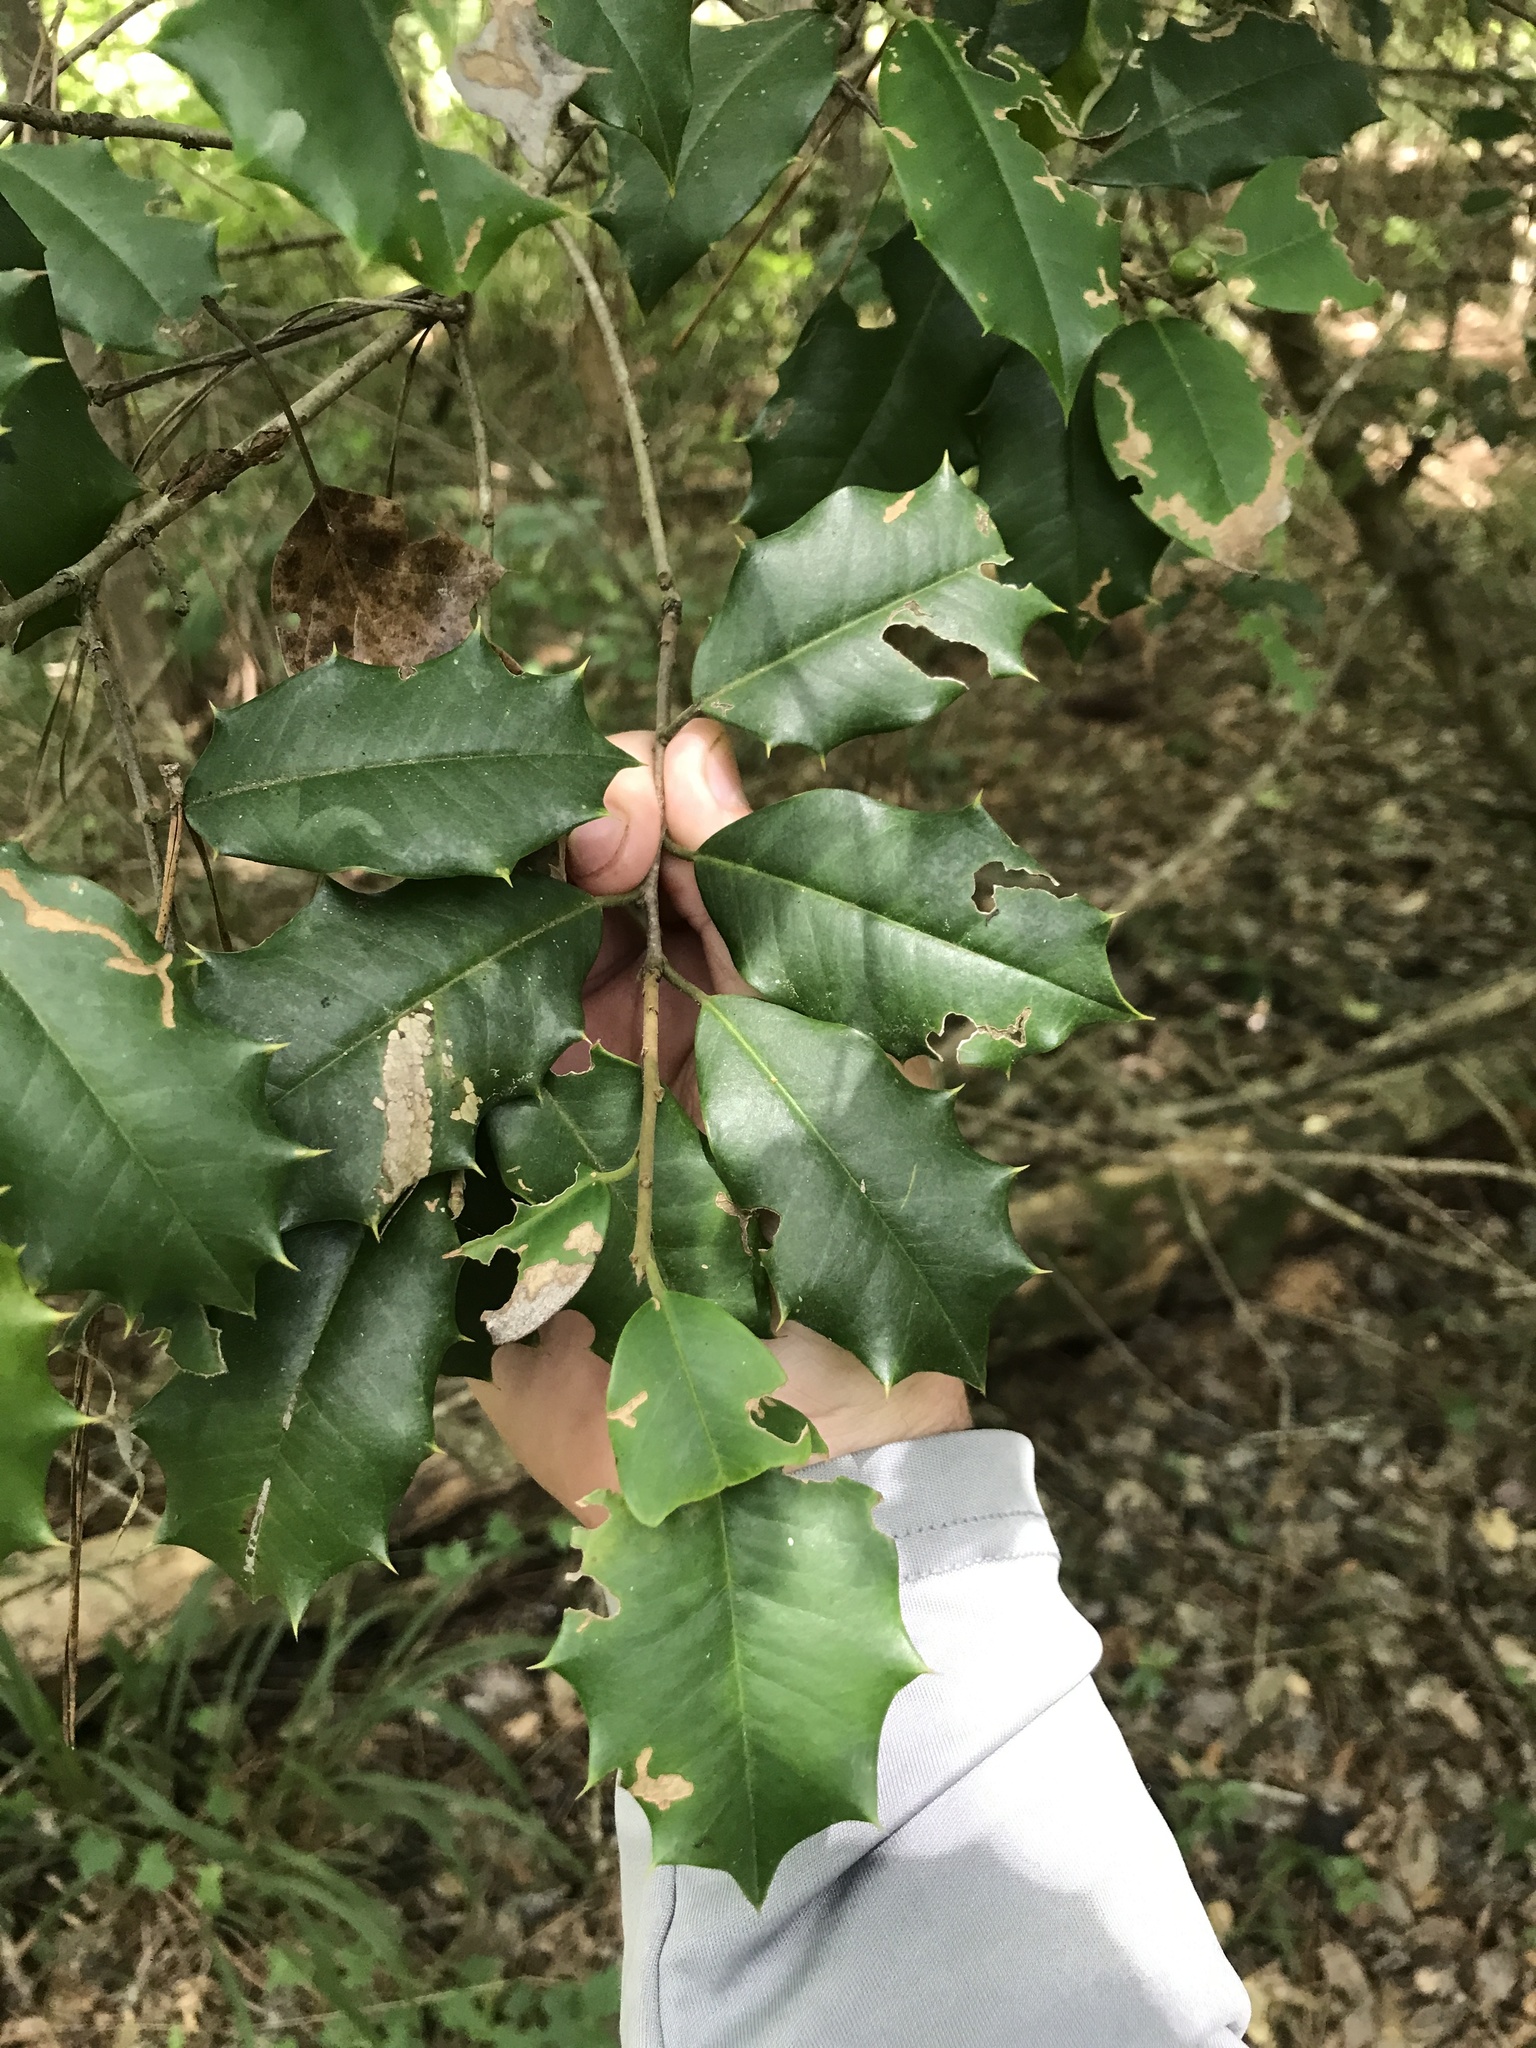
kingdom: Plantae
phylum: Tracheophyta
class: Magnoliopsida
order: Aquifoliales
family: Aquifoliaceae
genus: Ilex
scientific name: Ilex opaca
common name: American holly
